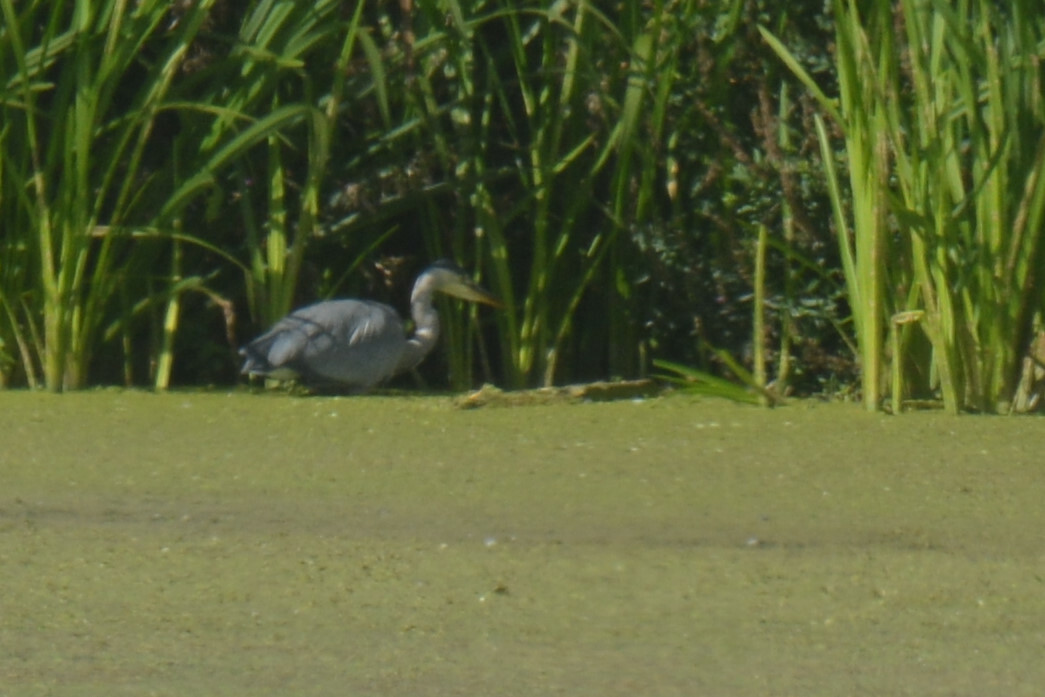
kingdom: Animalia
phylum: Chordata
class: Aves
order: Pelecaniformes
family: Ardeidae
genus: Ardea
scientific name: Ardea cinerea
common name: Grey heron
